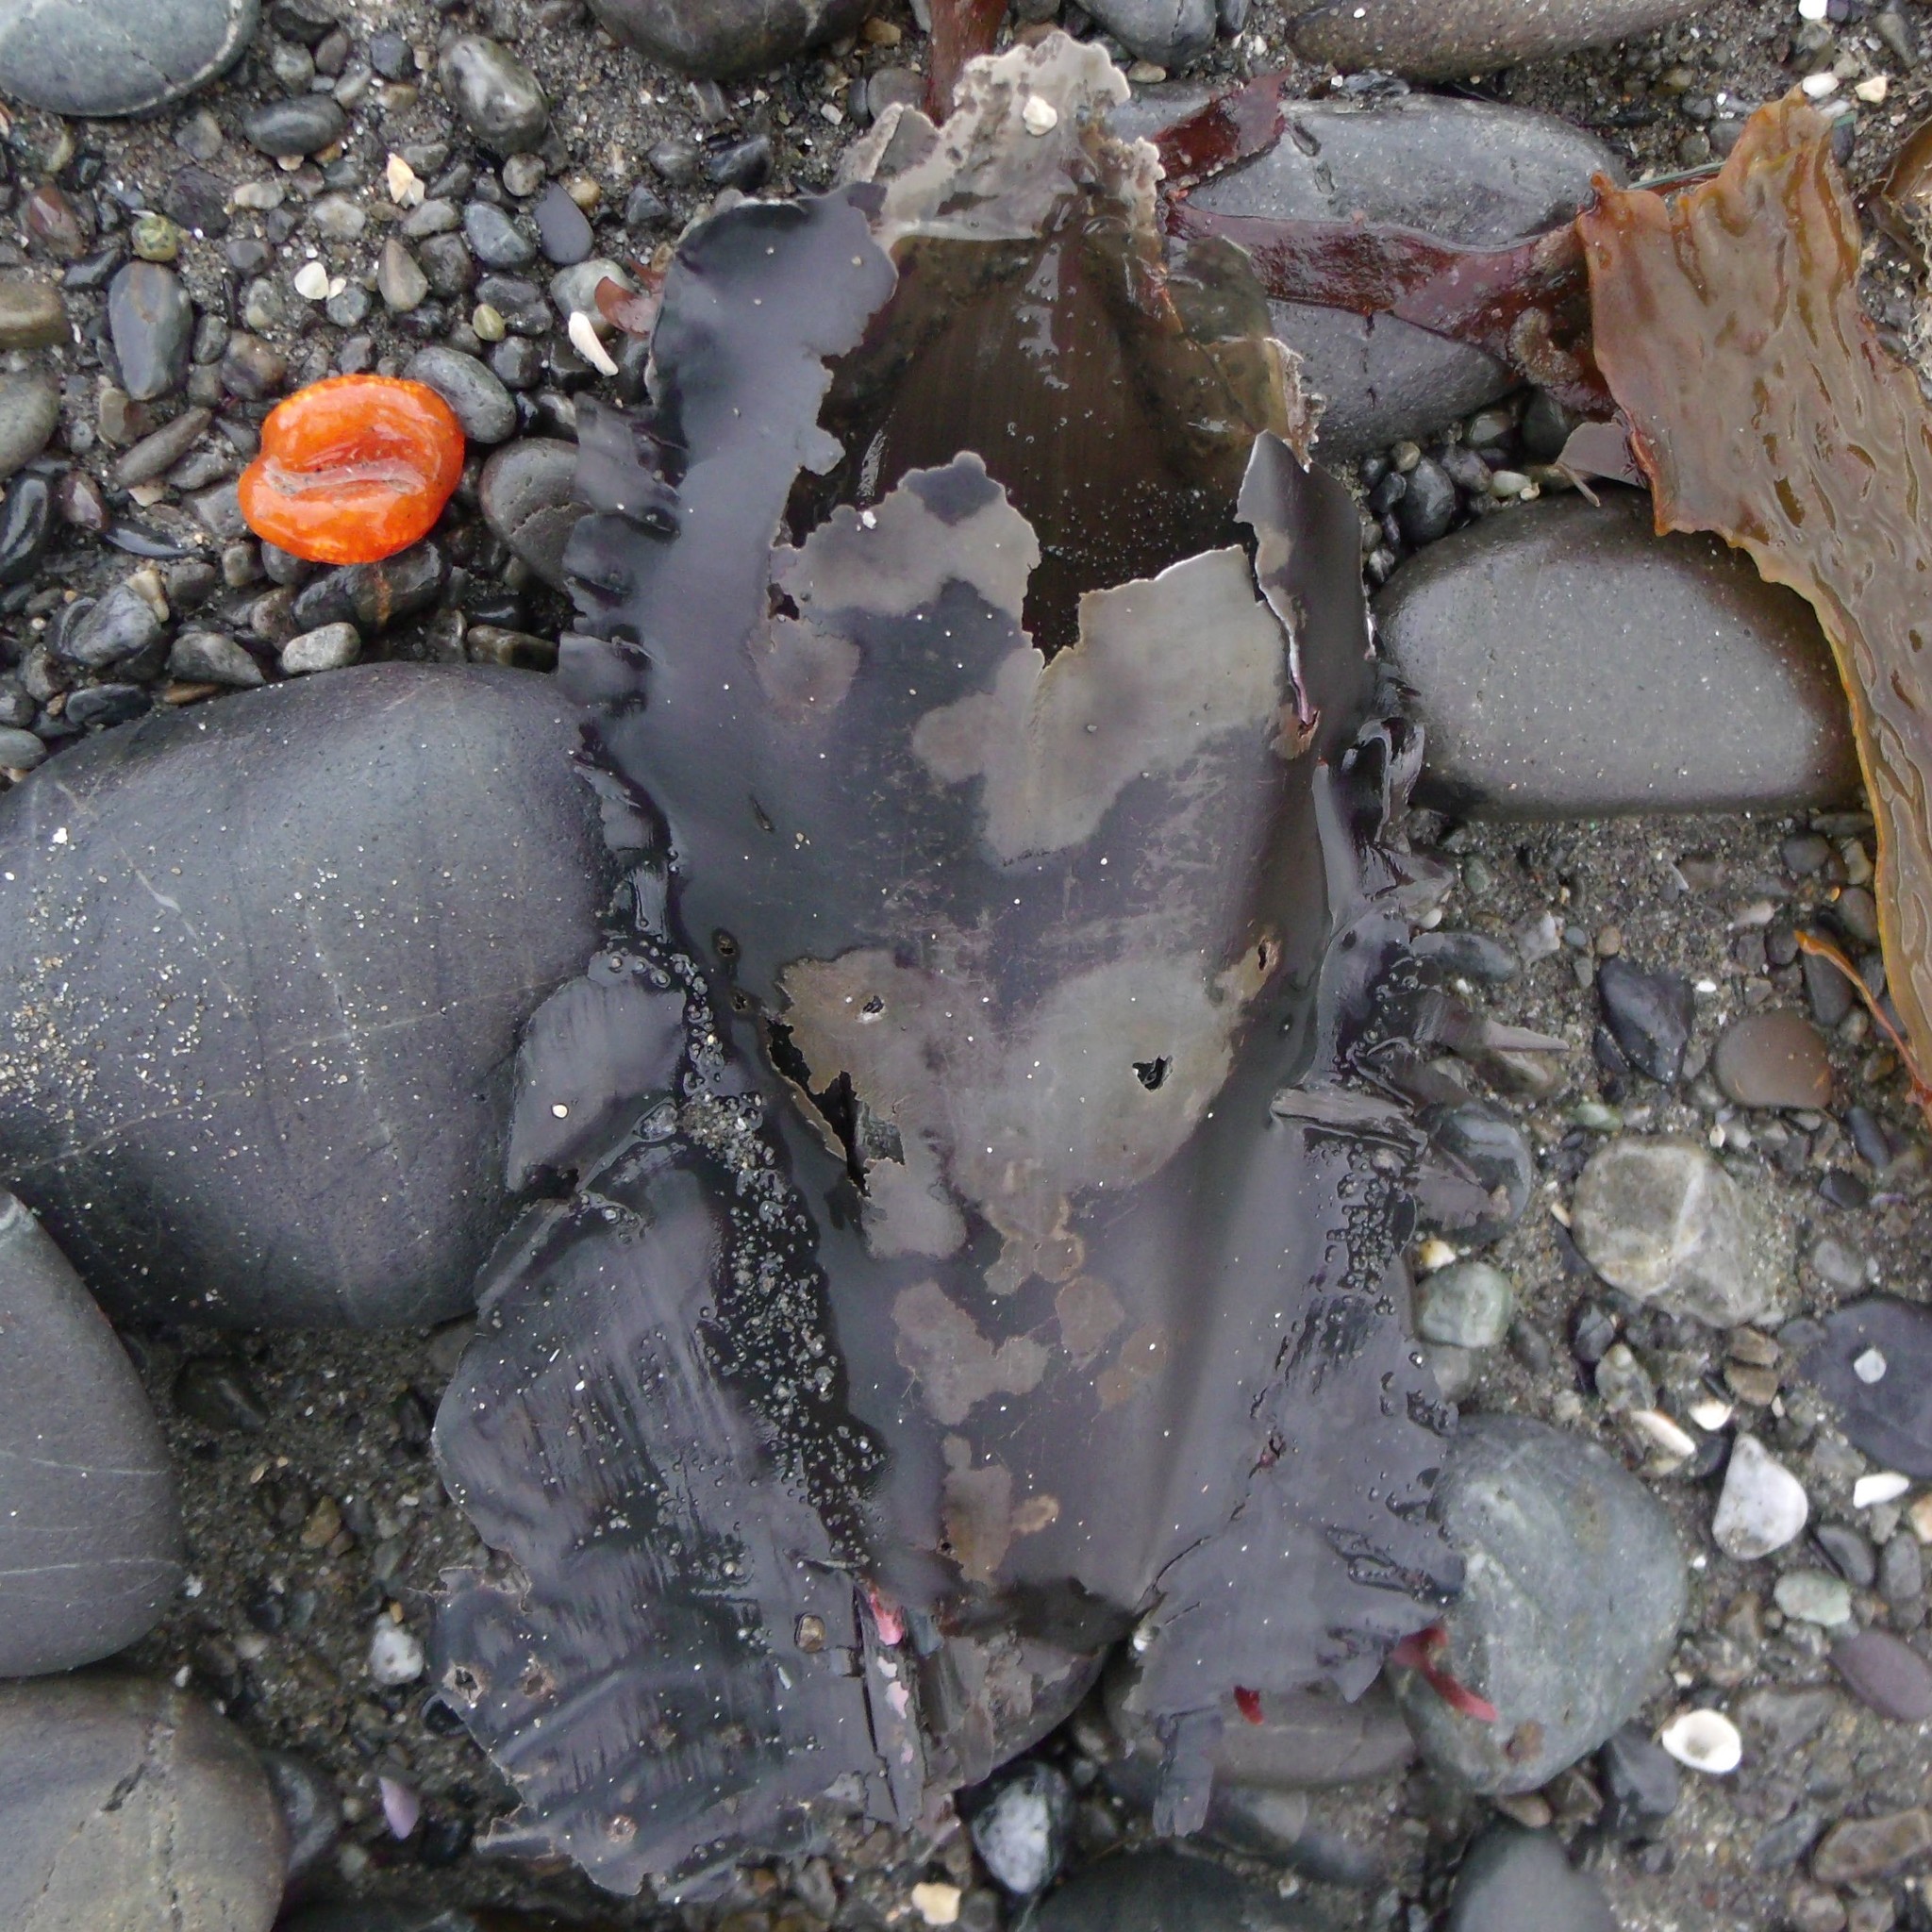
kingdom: Animalia
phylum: Chordata
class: Holocephali
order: Chimaeriformes
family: Callorhinchidae
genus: Callorhinchus
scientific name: Callorhinchus milii
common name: Elephant fish
